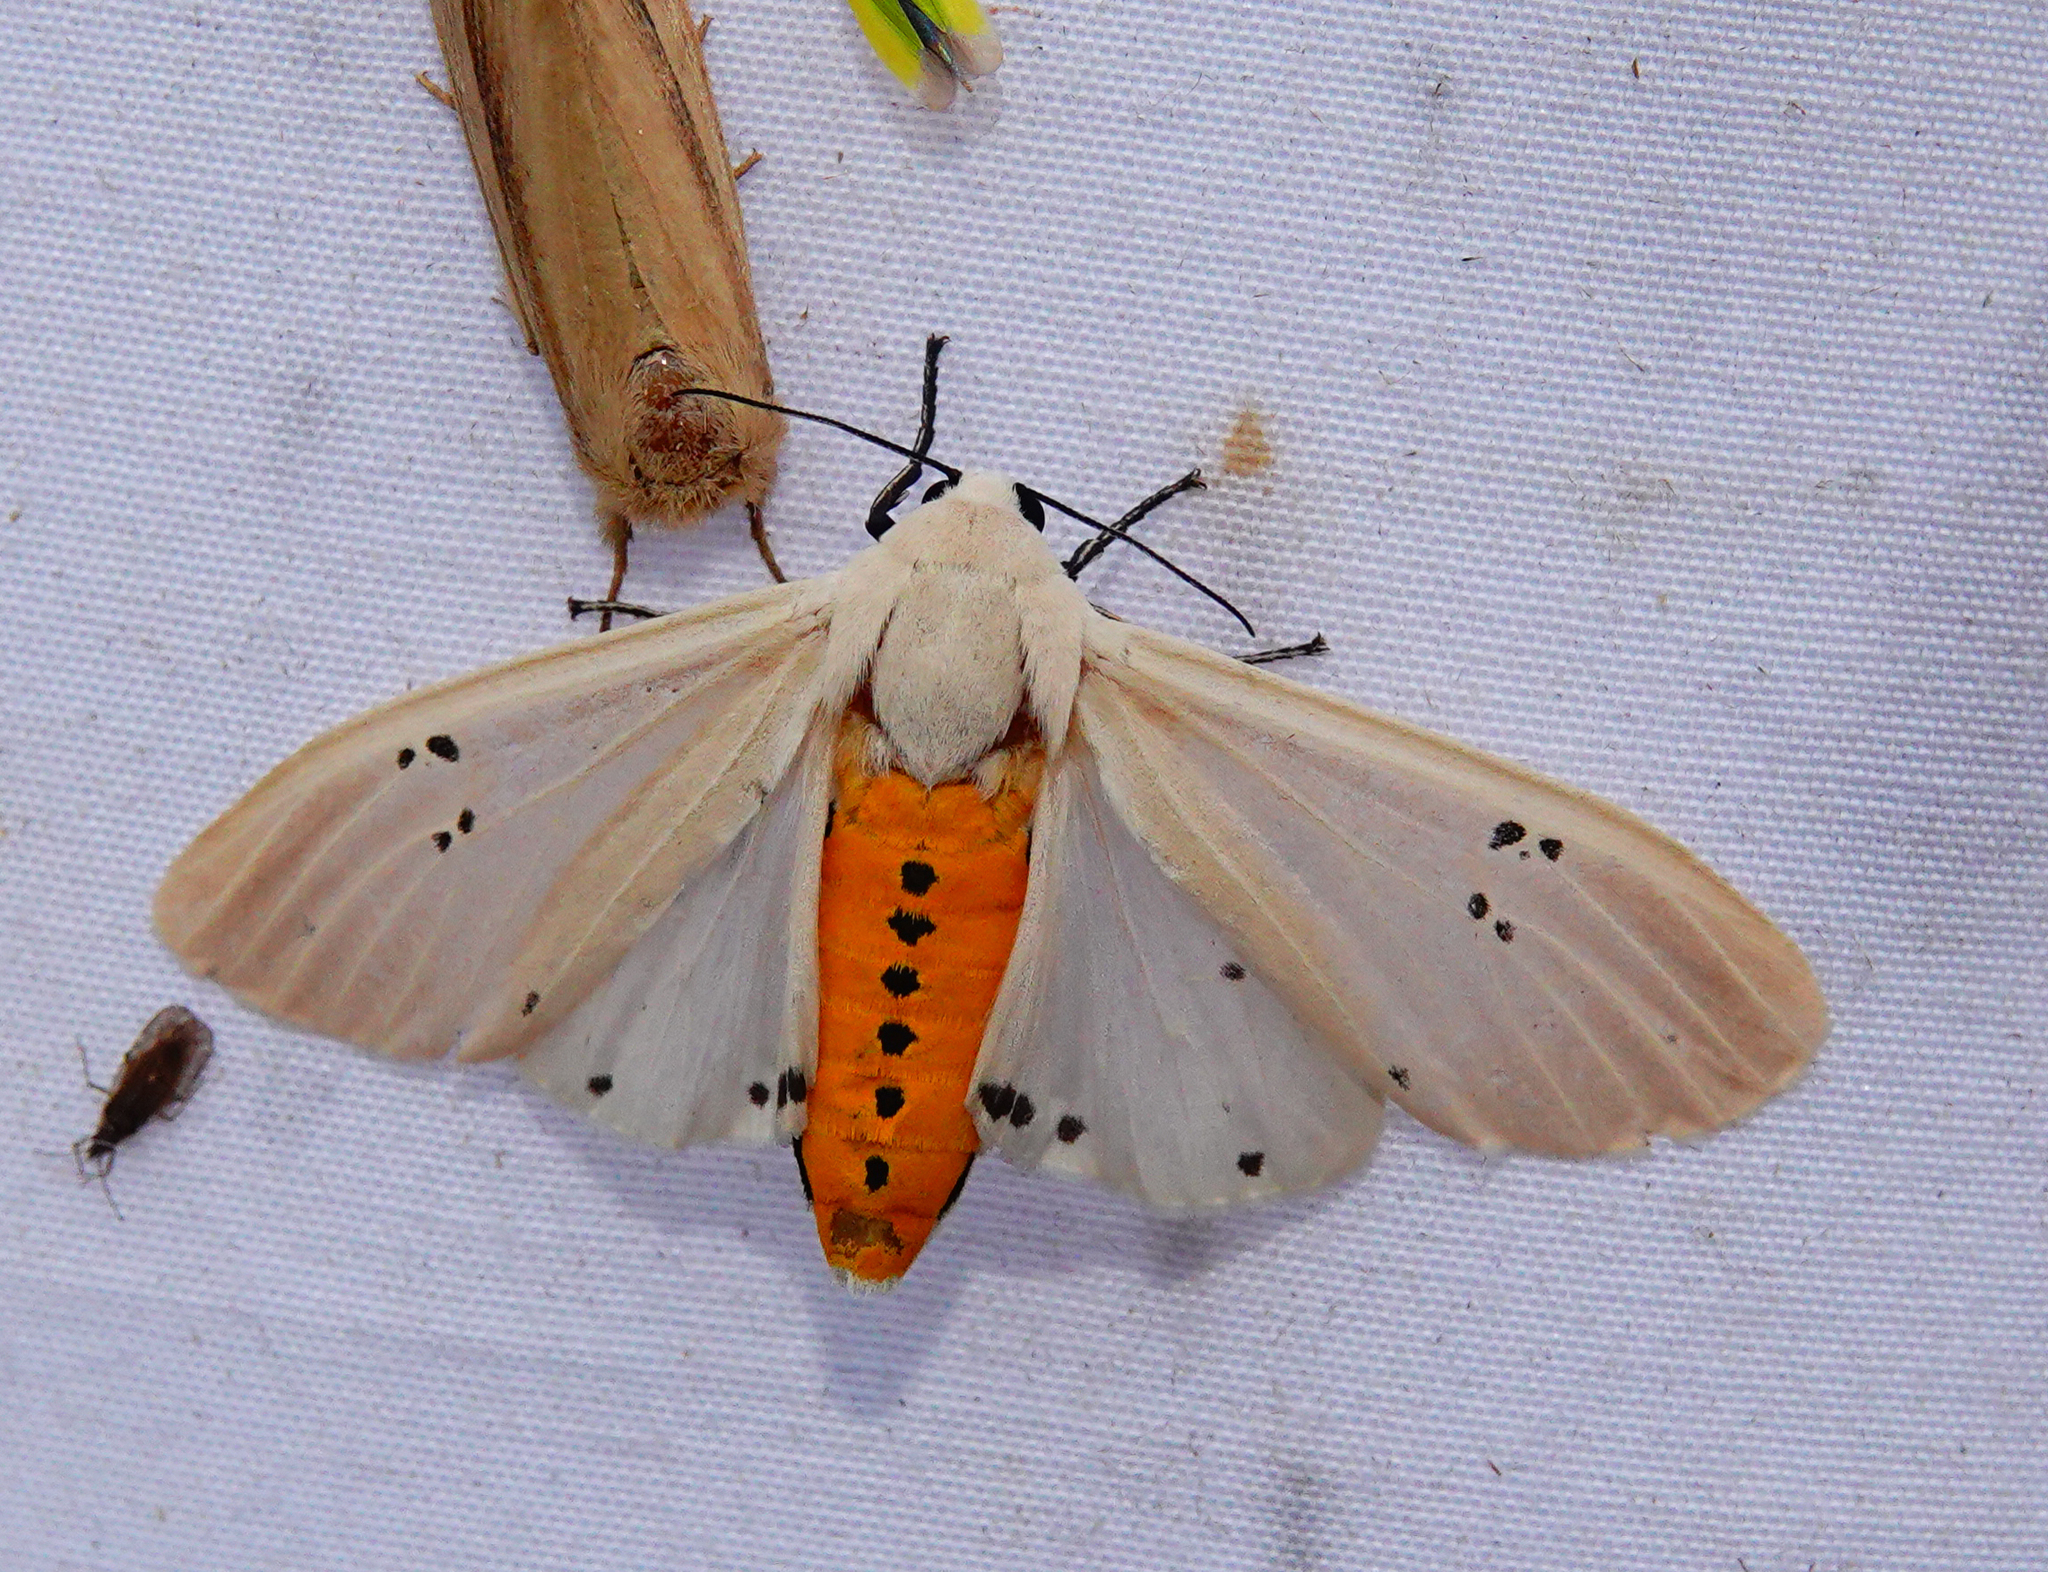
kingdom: Animalia
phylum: Arthropoda
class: Insecta
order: Lepidoptera
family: Erebidae
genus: Creatonotos
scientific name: Creatonotos transiens
